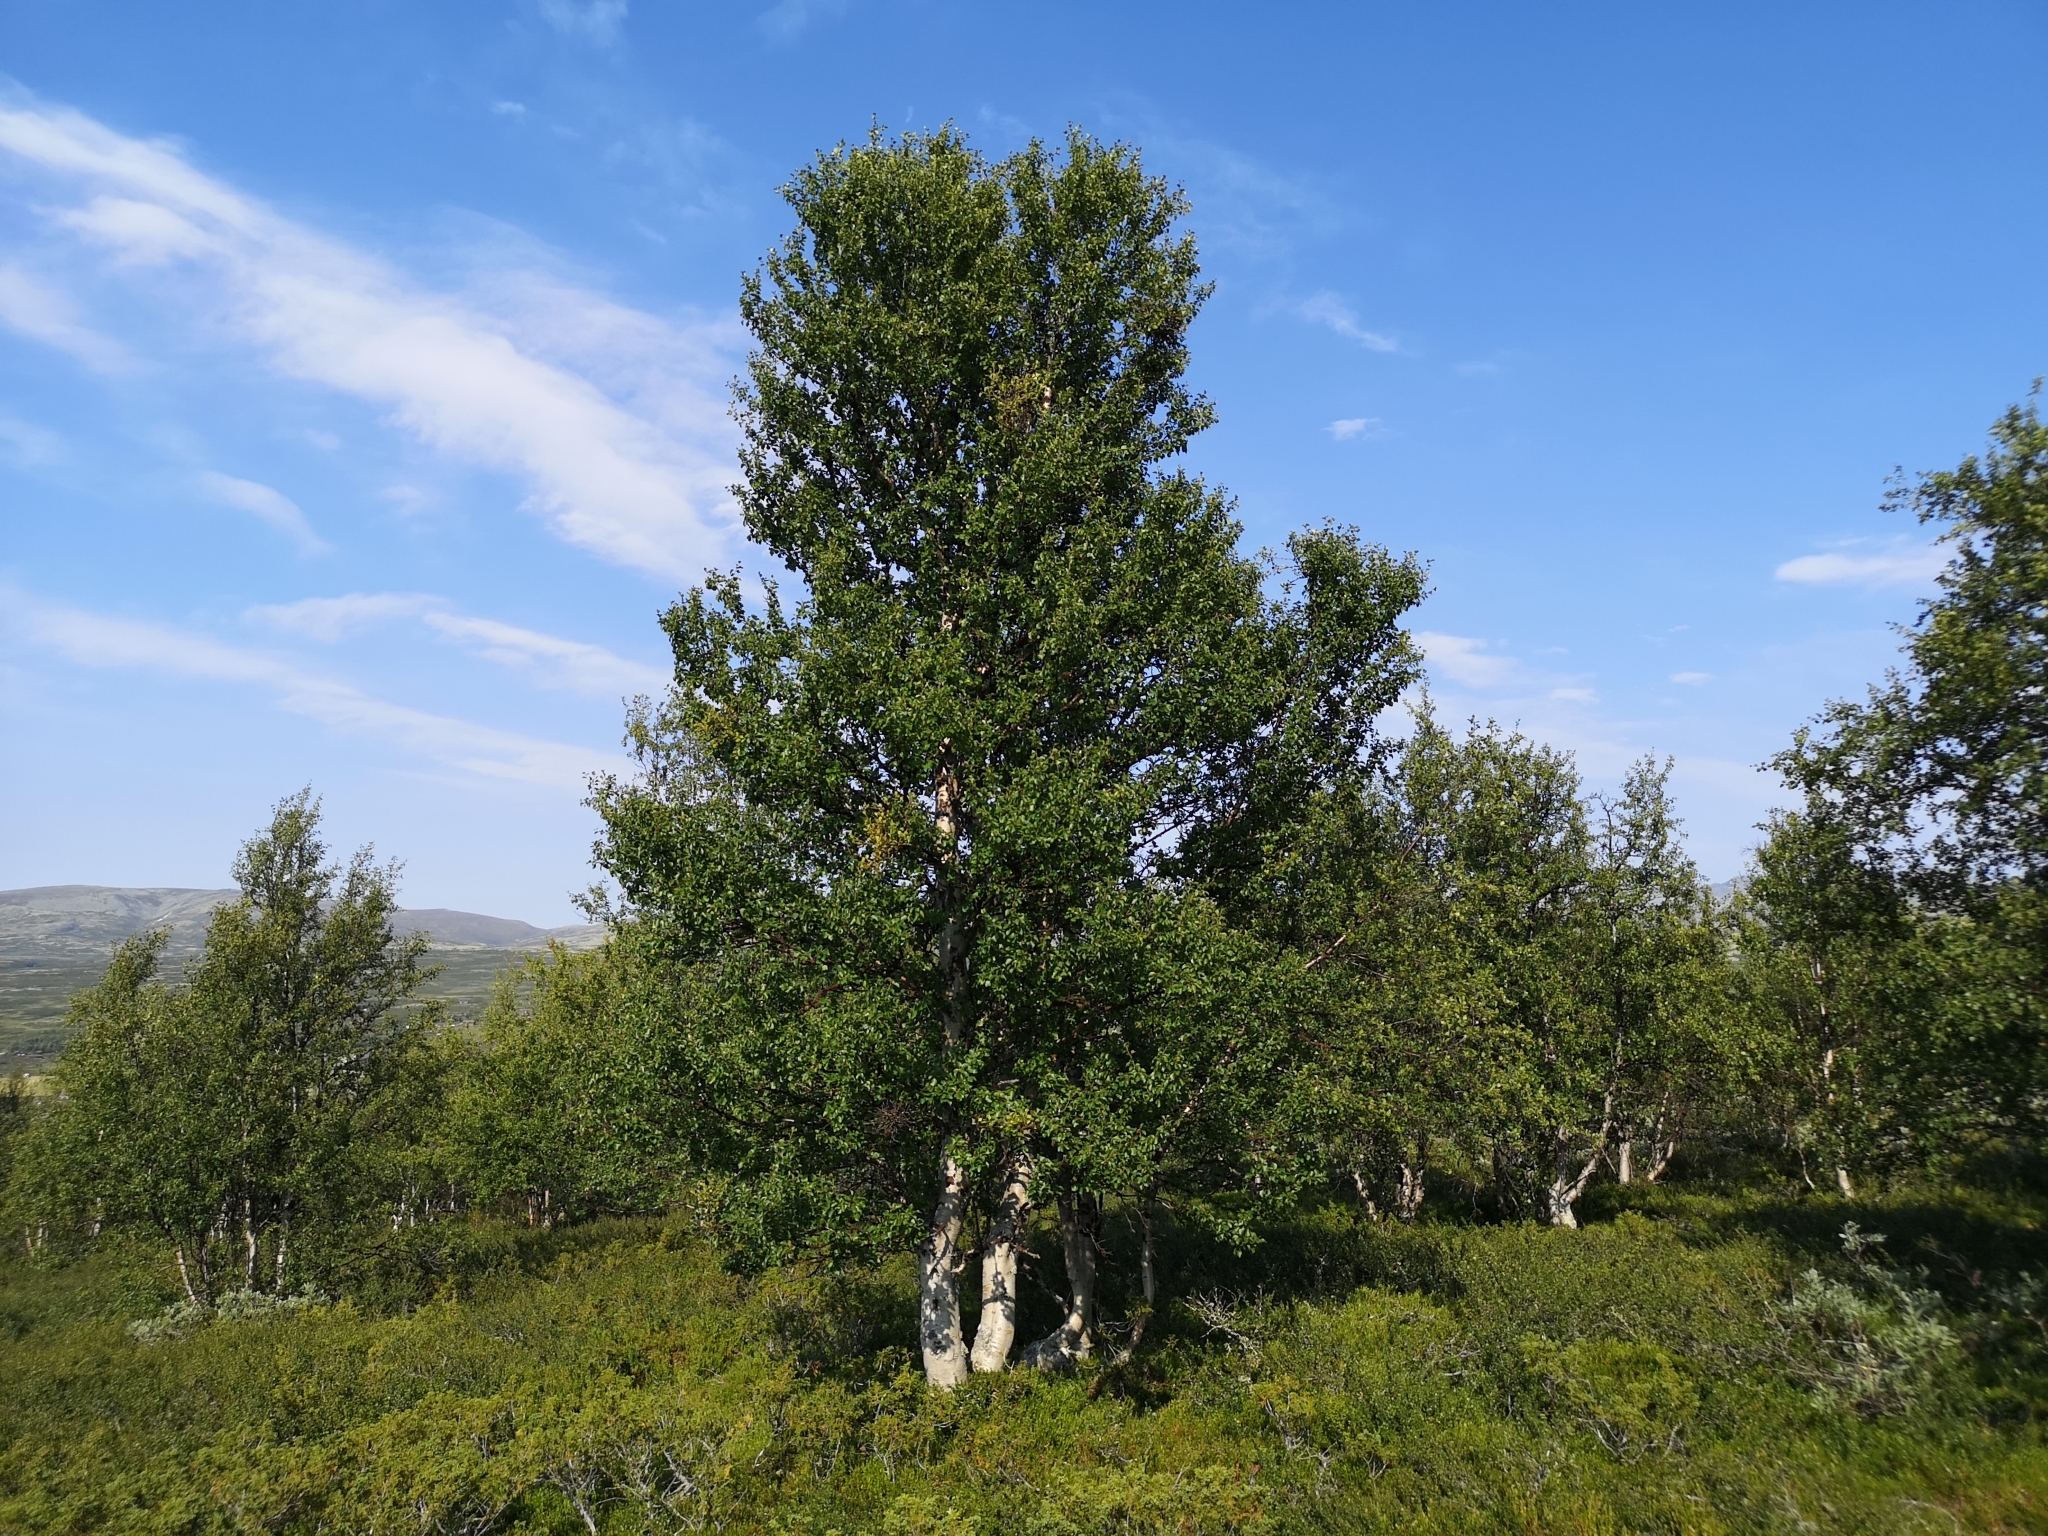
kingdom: Plantae
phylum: Tracheophyta
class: Magnoliopsida
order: Fagales
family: Betulaceae
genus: Betula
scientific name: Betula pubescens
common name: Downy birch
